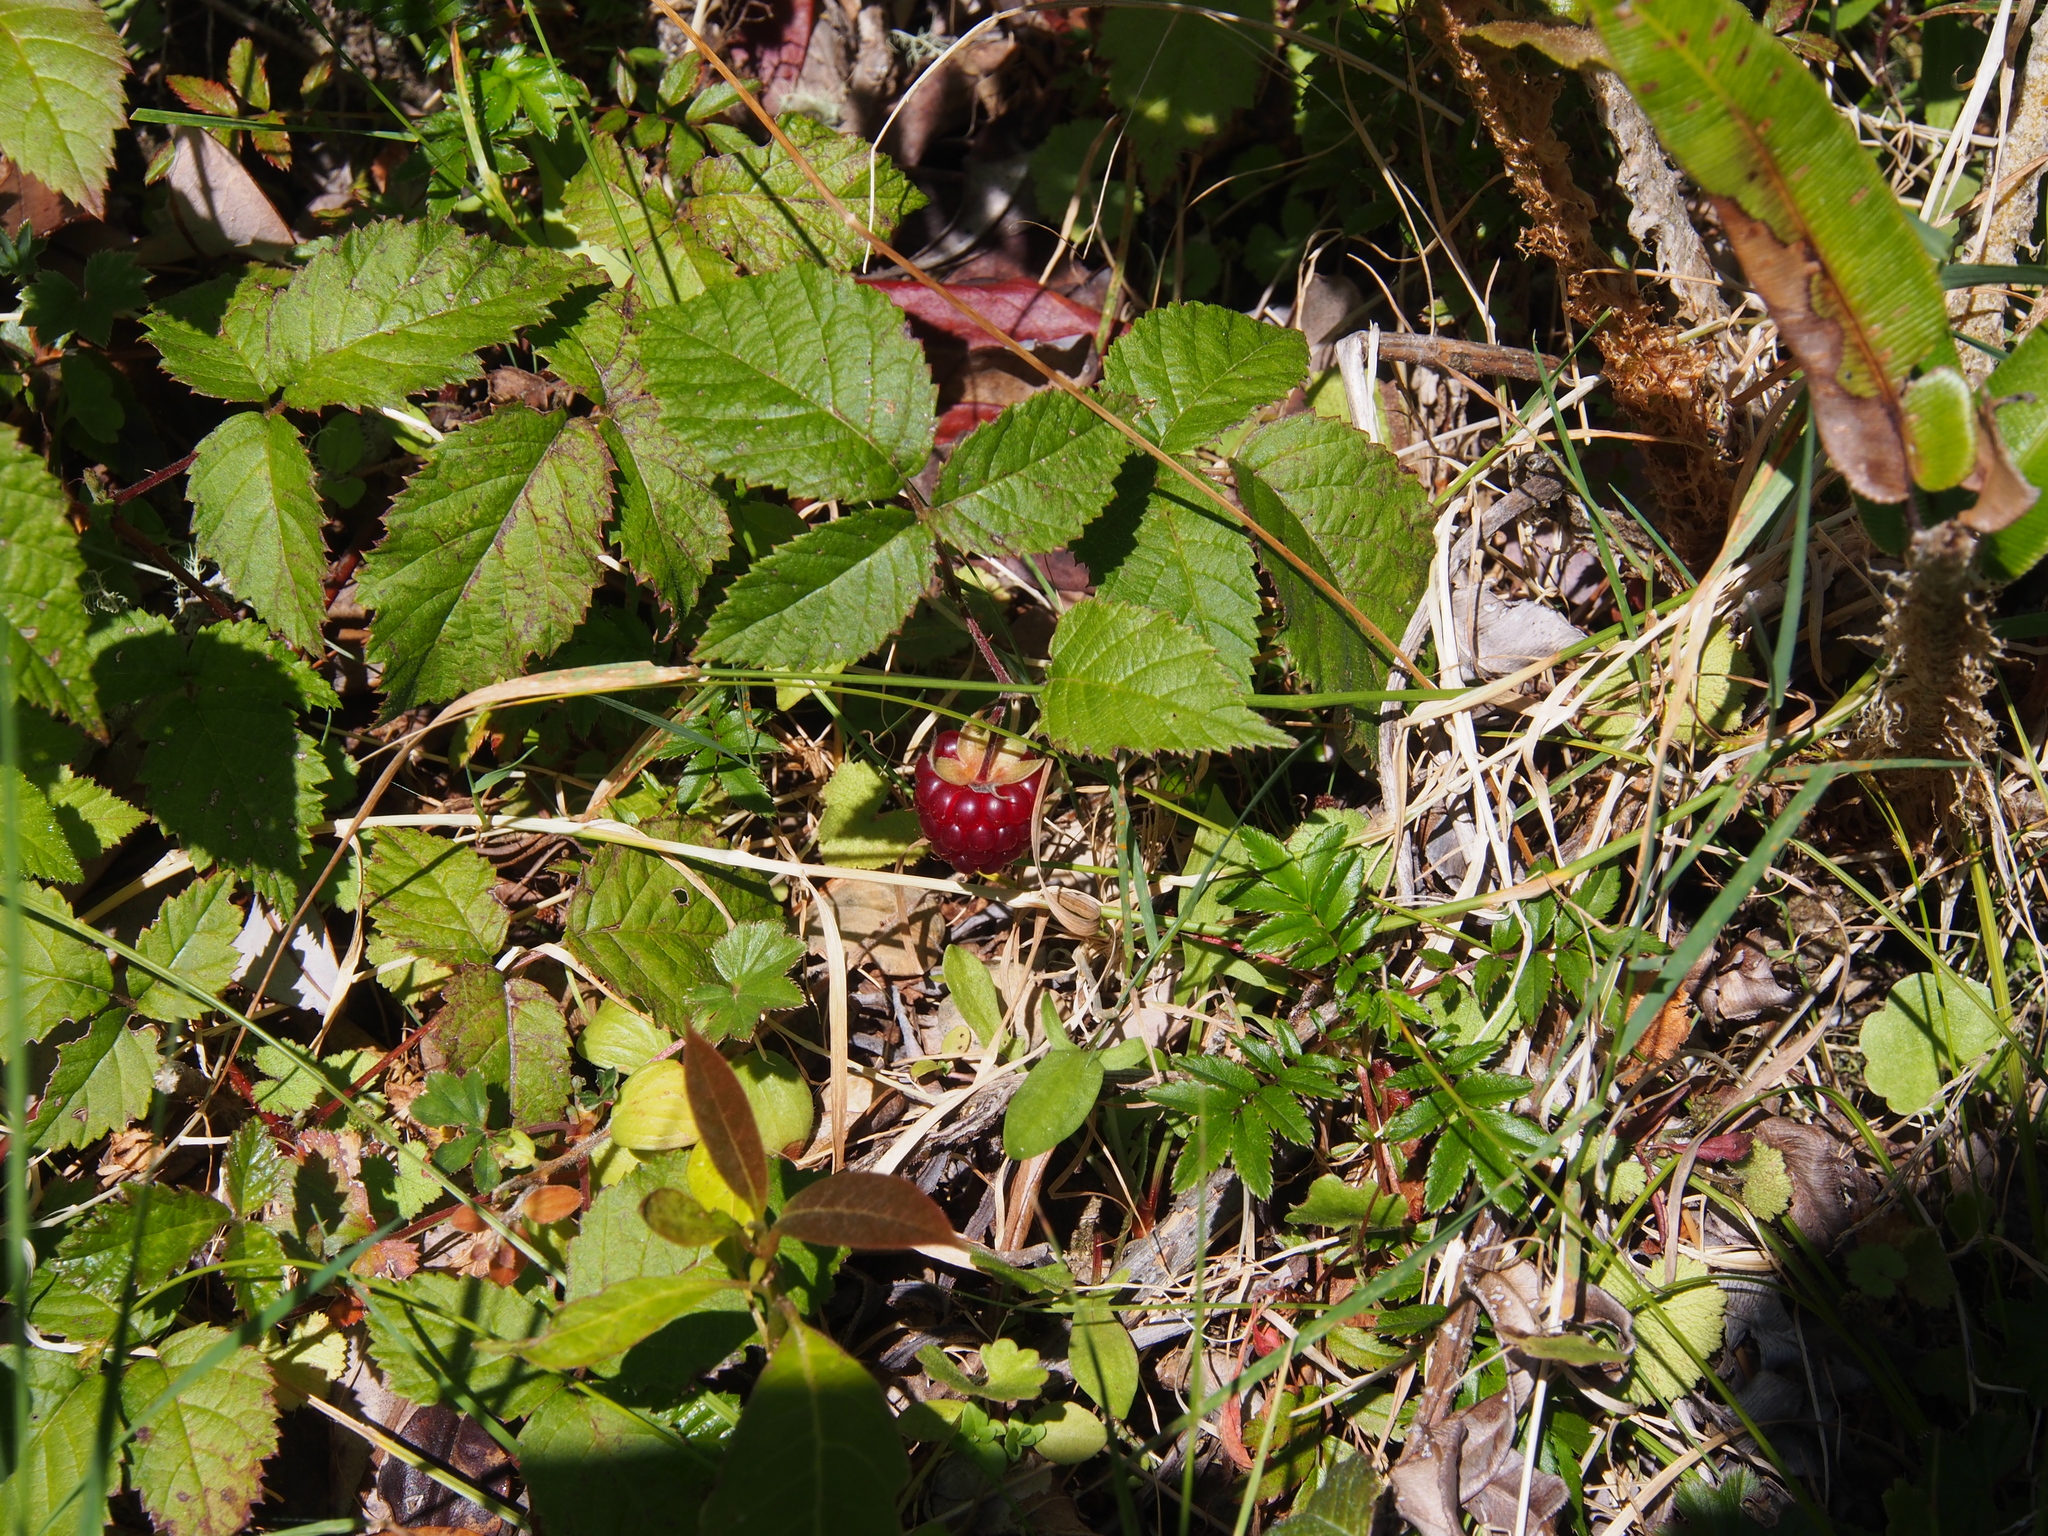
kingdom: Plantae
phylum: Tracheophyta
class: Magnoliopsida
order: Rosales
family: Rosaceae
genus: Rubus
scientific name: Rubus glaucus
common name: Andean blackberry
